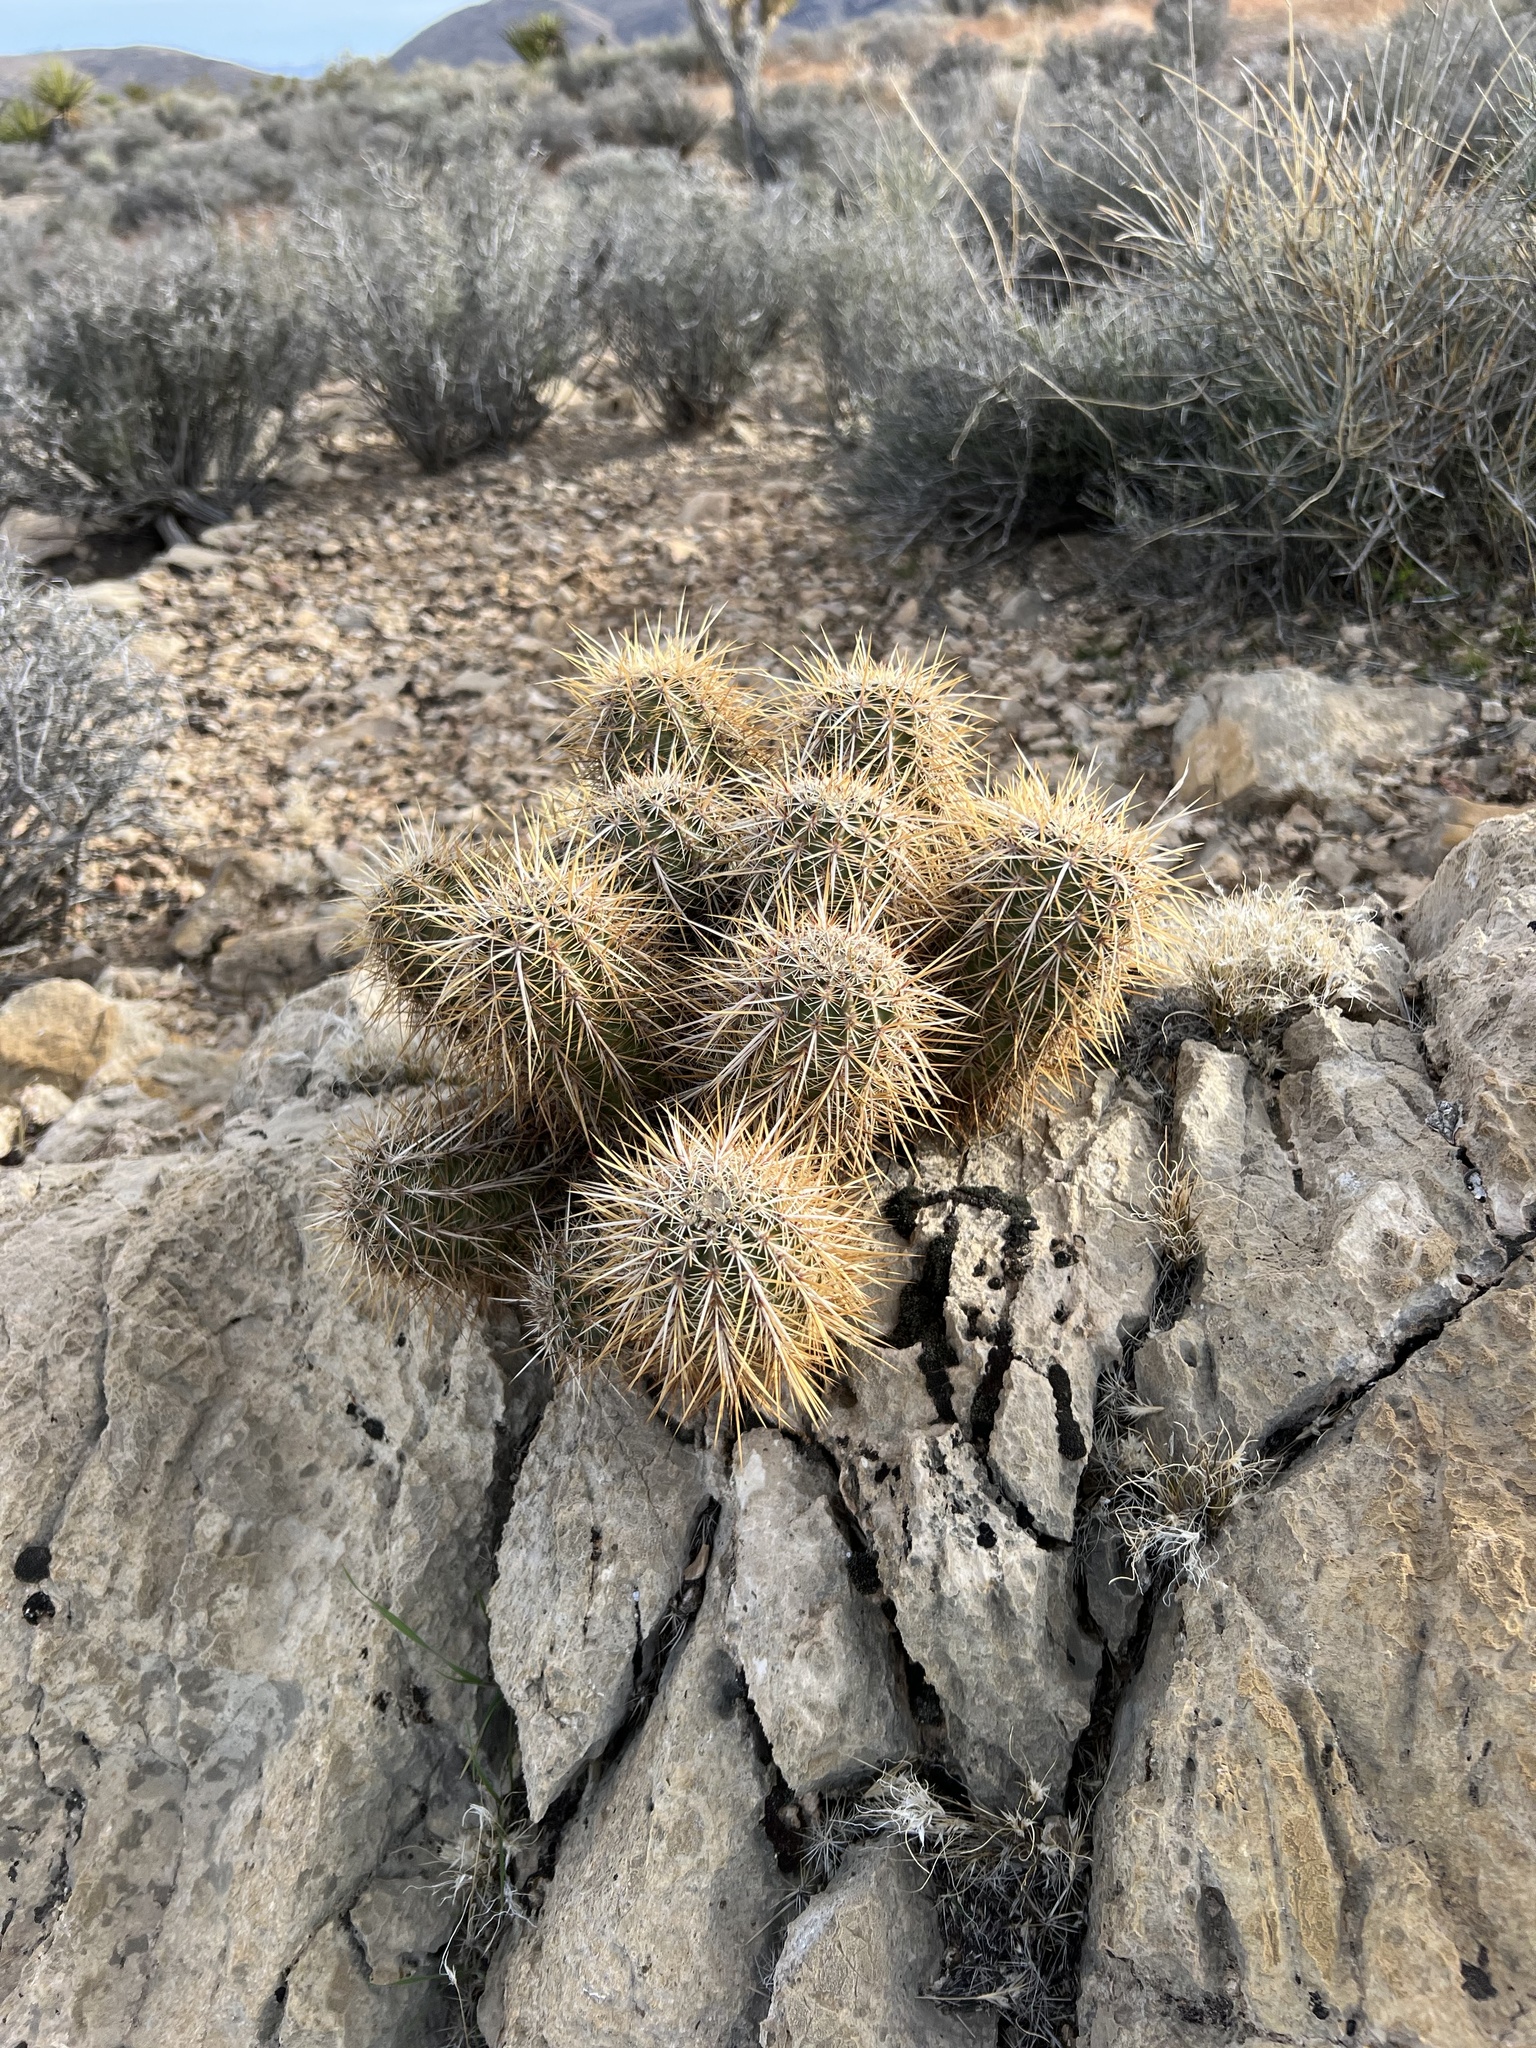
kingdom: Plantae
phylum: Tracheophyta
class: Magnoliopsida
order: Caryophyllales
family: Cactaceae
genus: Echinocereus
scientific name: Echinocereus engelmannii
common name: Engelmann's hedgehog cactus
